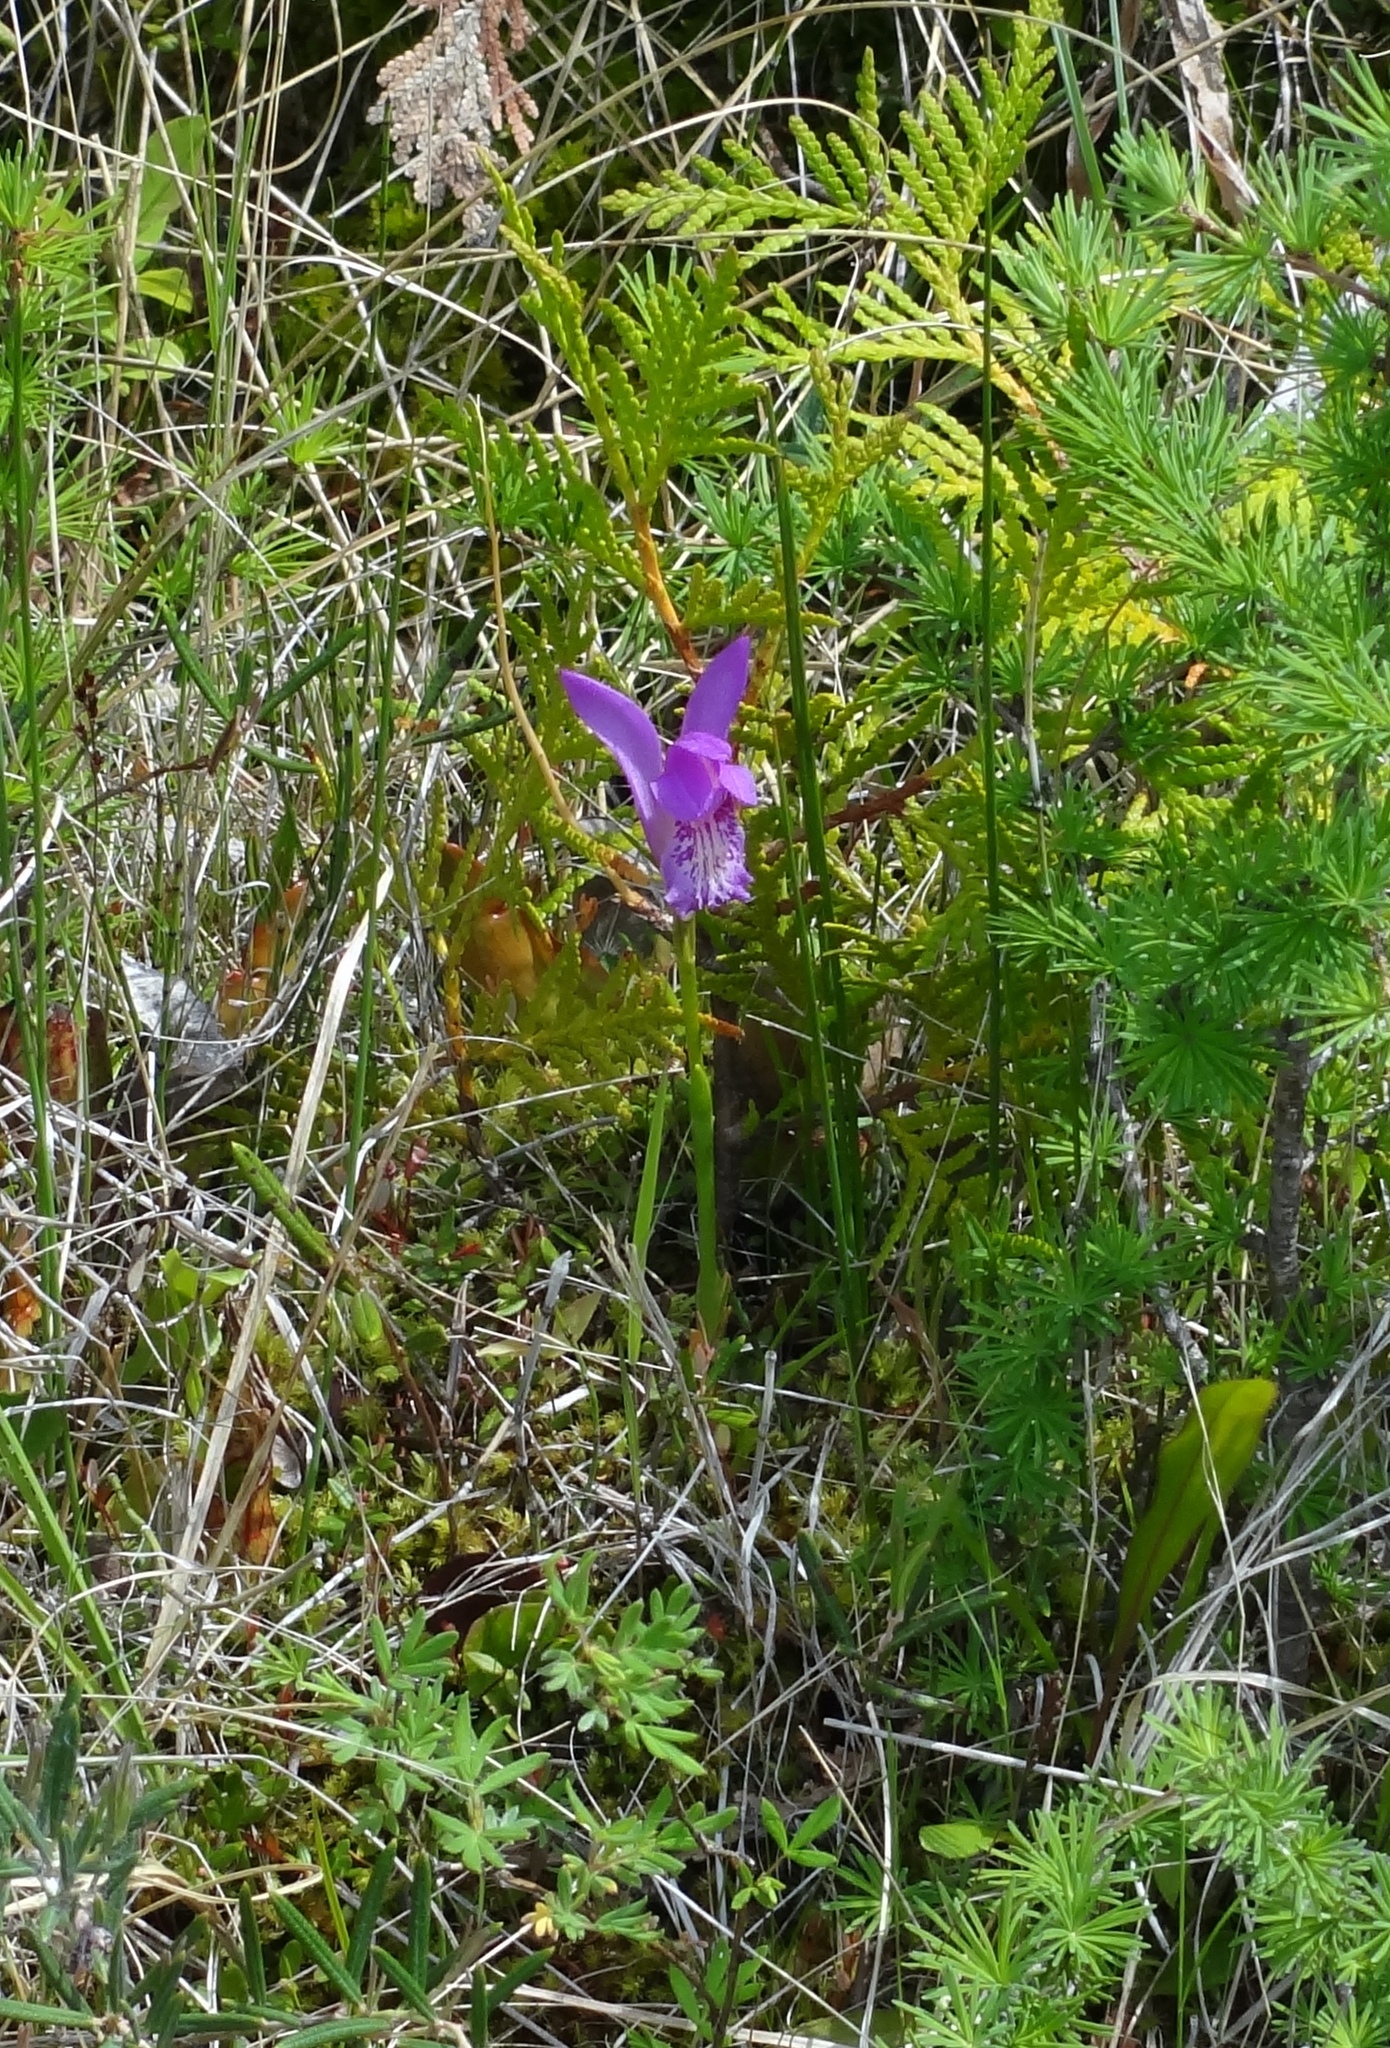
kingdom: Plantae
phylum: Tracheophyta
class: Liliopsida
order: Asparagales
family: Orchidaceae
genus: Arethusa
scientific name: Arethusa bulbosa
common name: Arethusa
